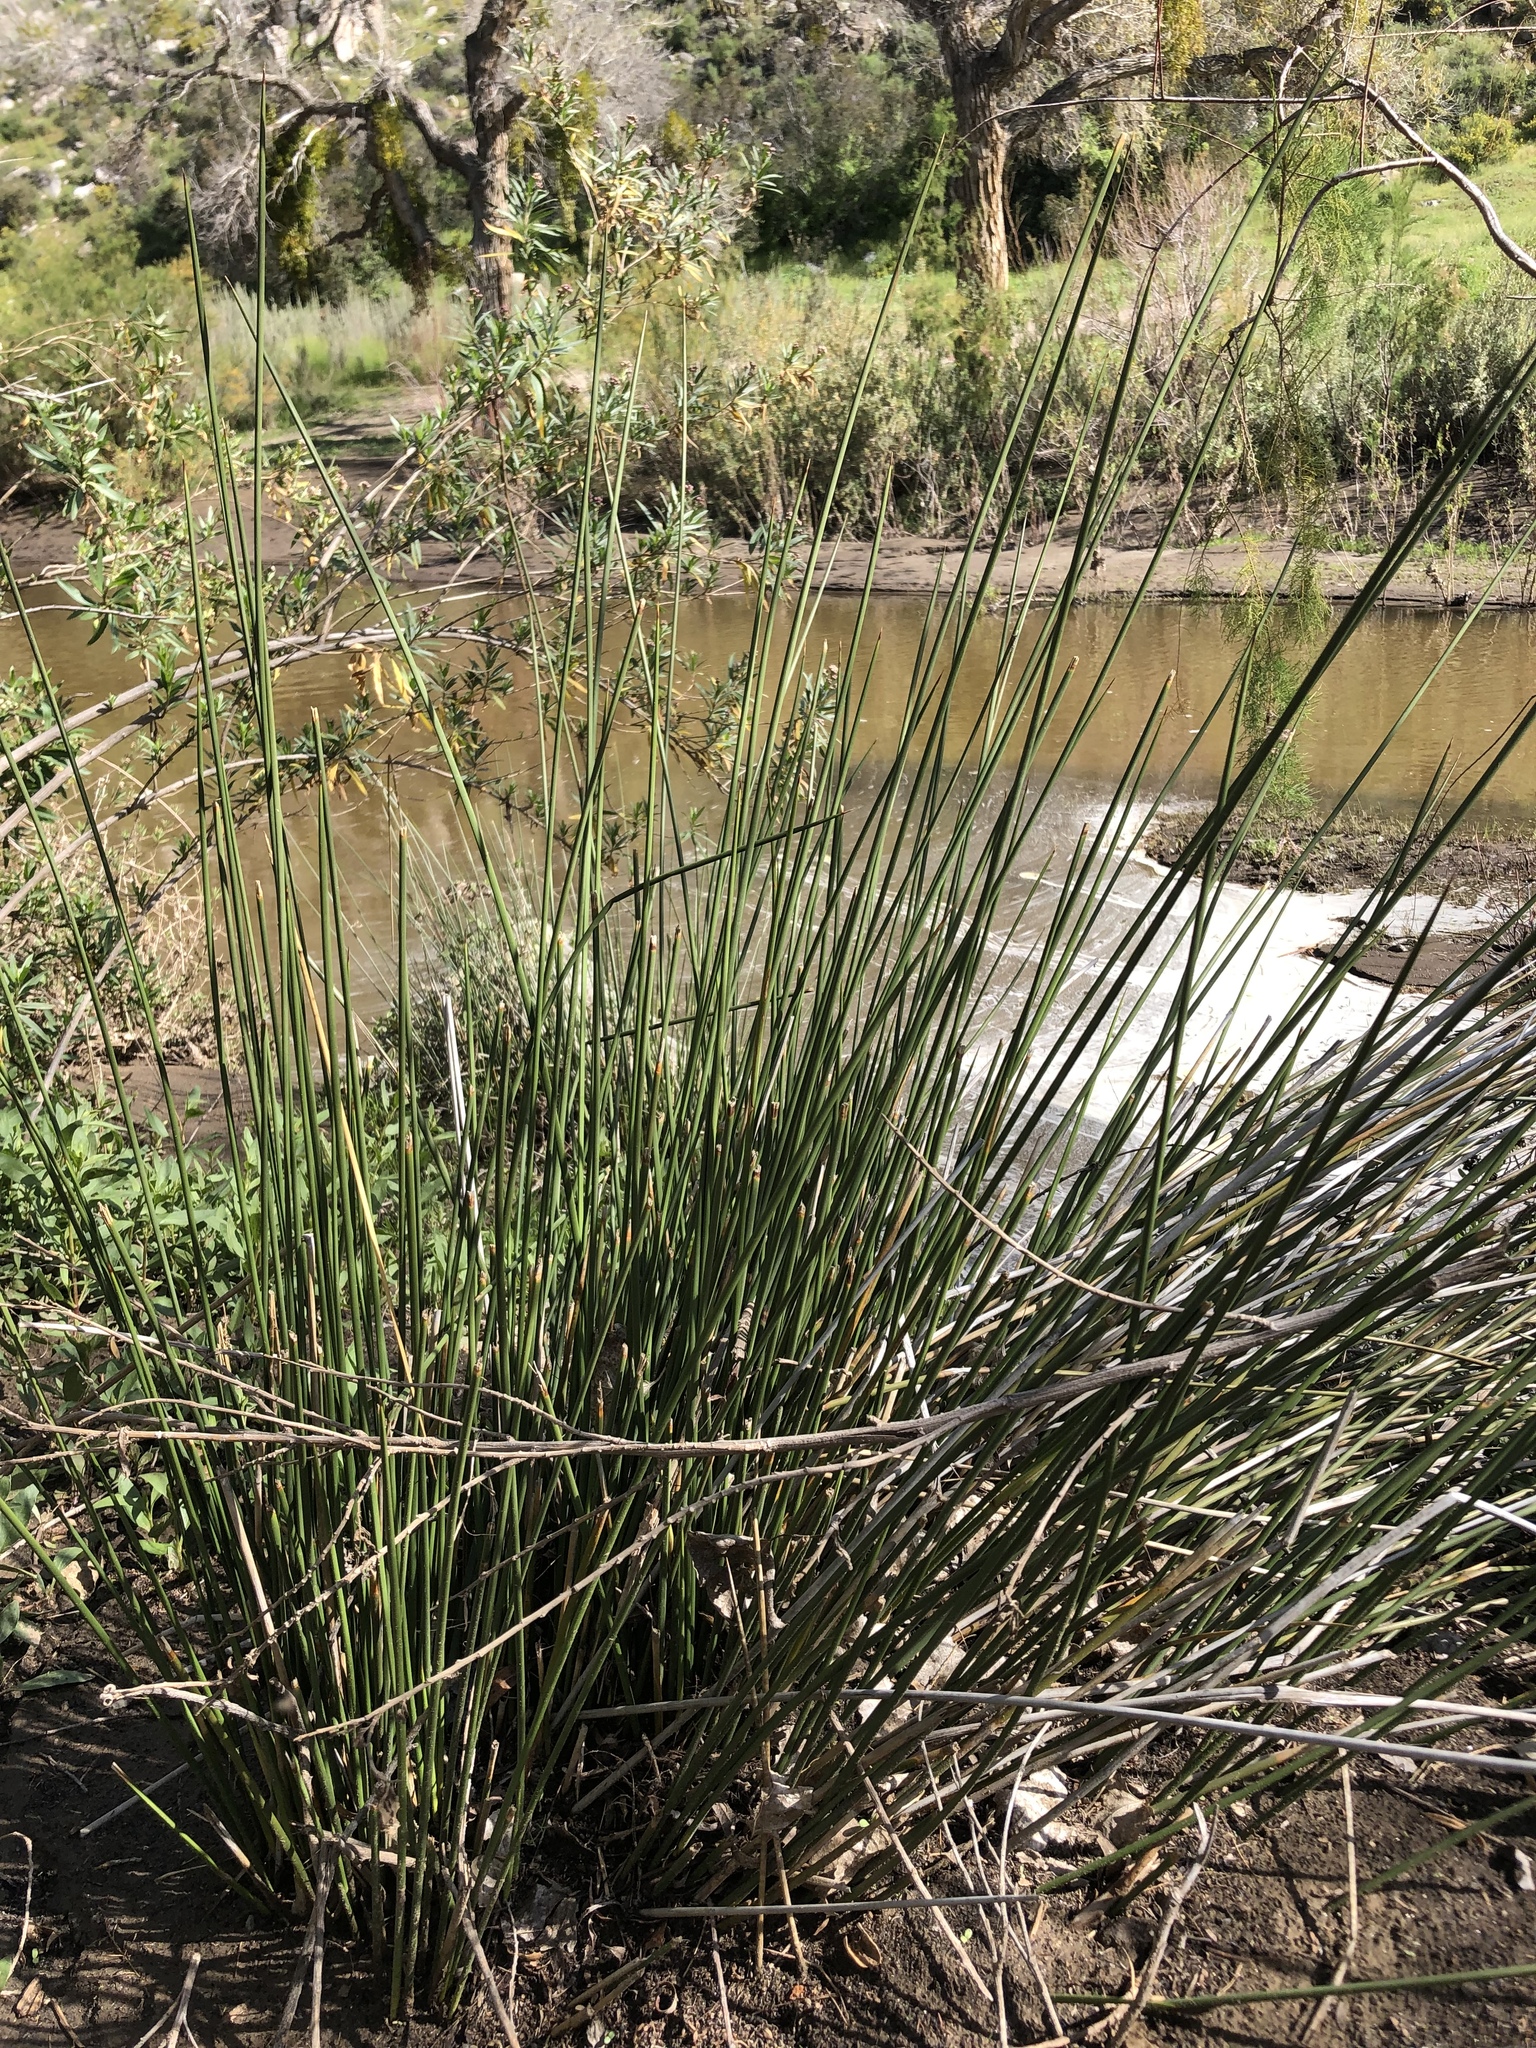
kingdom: Plantae
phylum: Tracheophyta
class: Liliopsida
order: Poales
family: Juncaceae
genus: Juncus
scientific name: Juncus acutus
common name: Sharp rush
